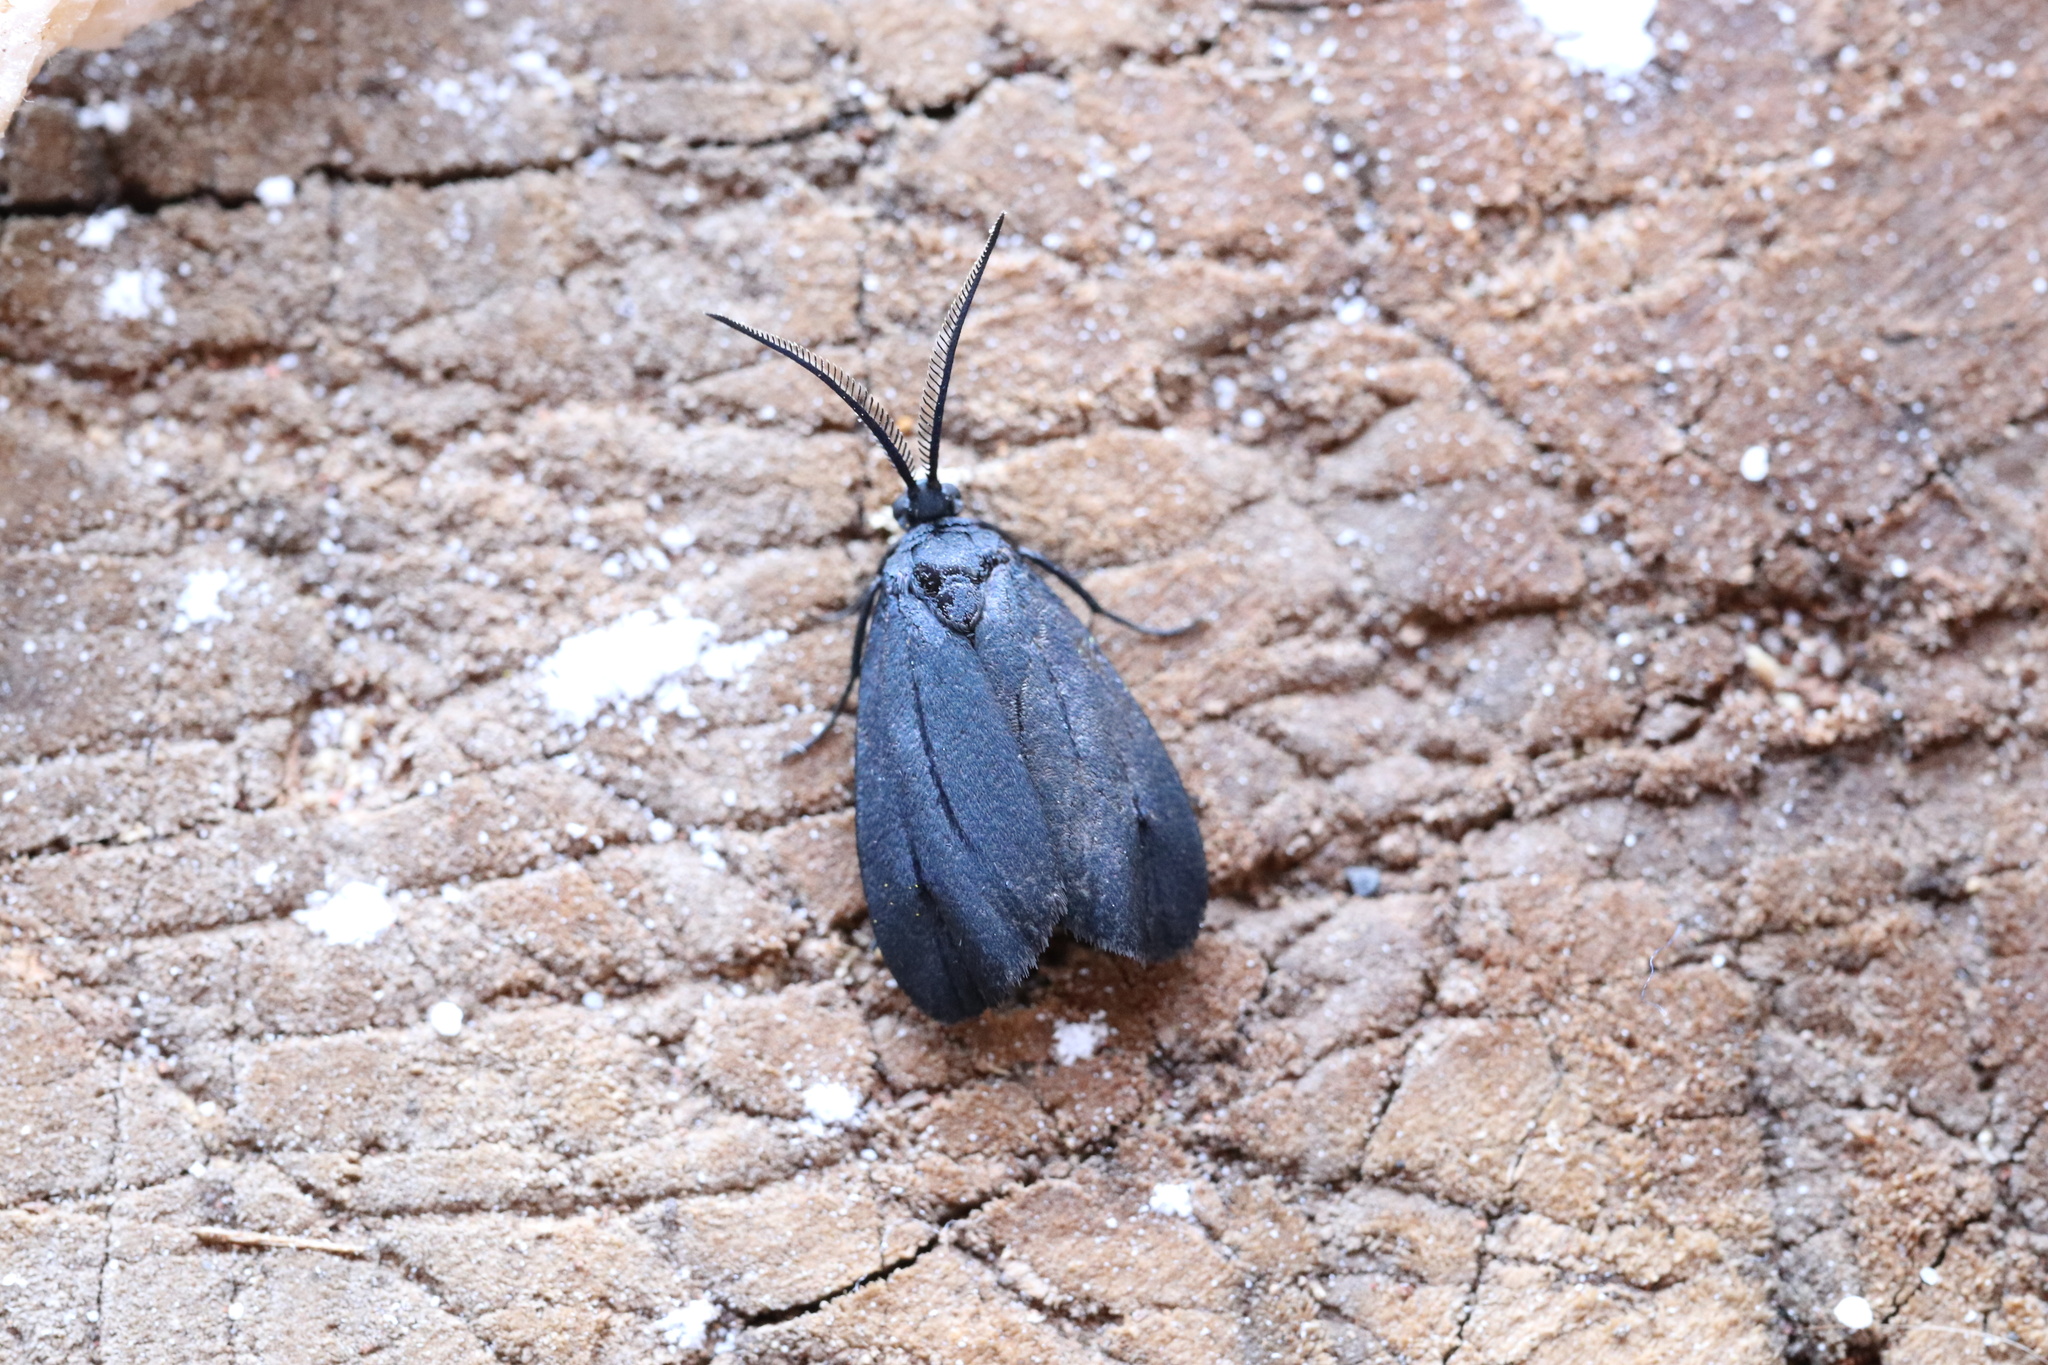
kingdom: Animalia
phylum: Arthropoda
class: Insecta
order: Lepidoptera
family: Zygaenidae
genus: Malamblia
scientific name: Malamblia
